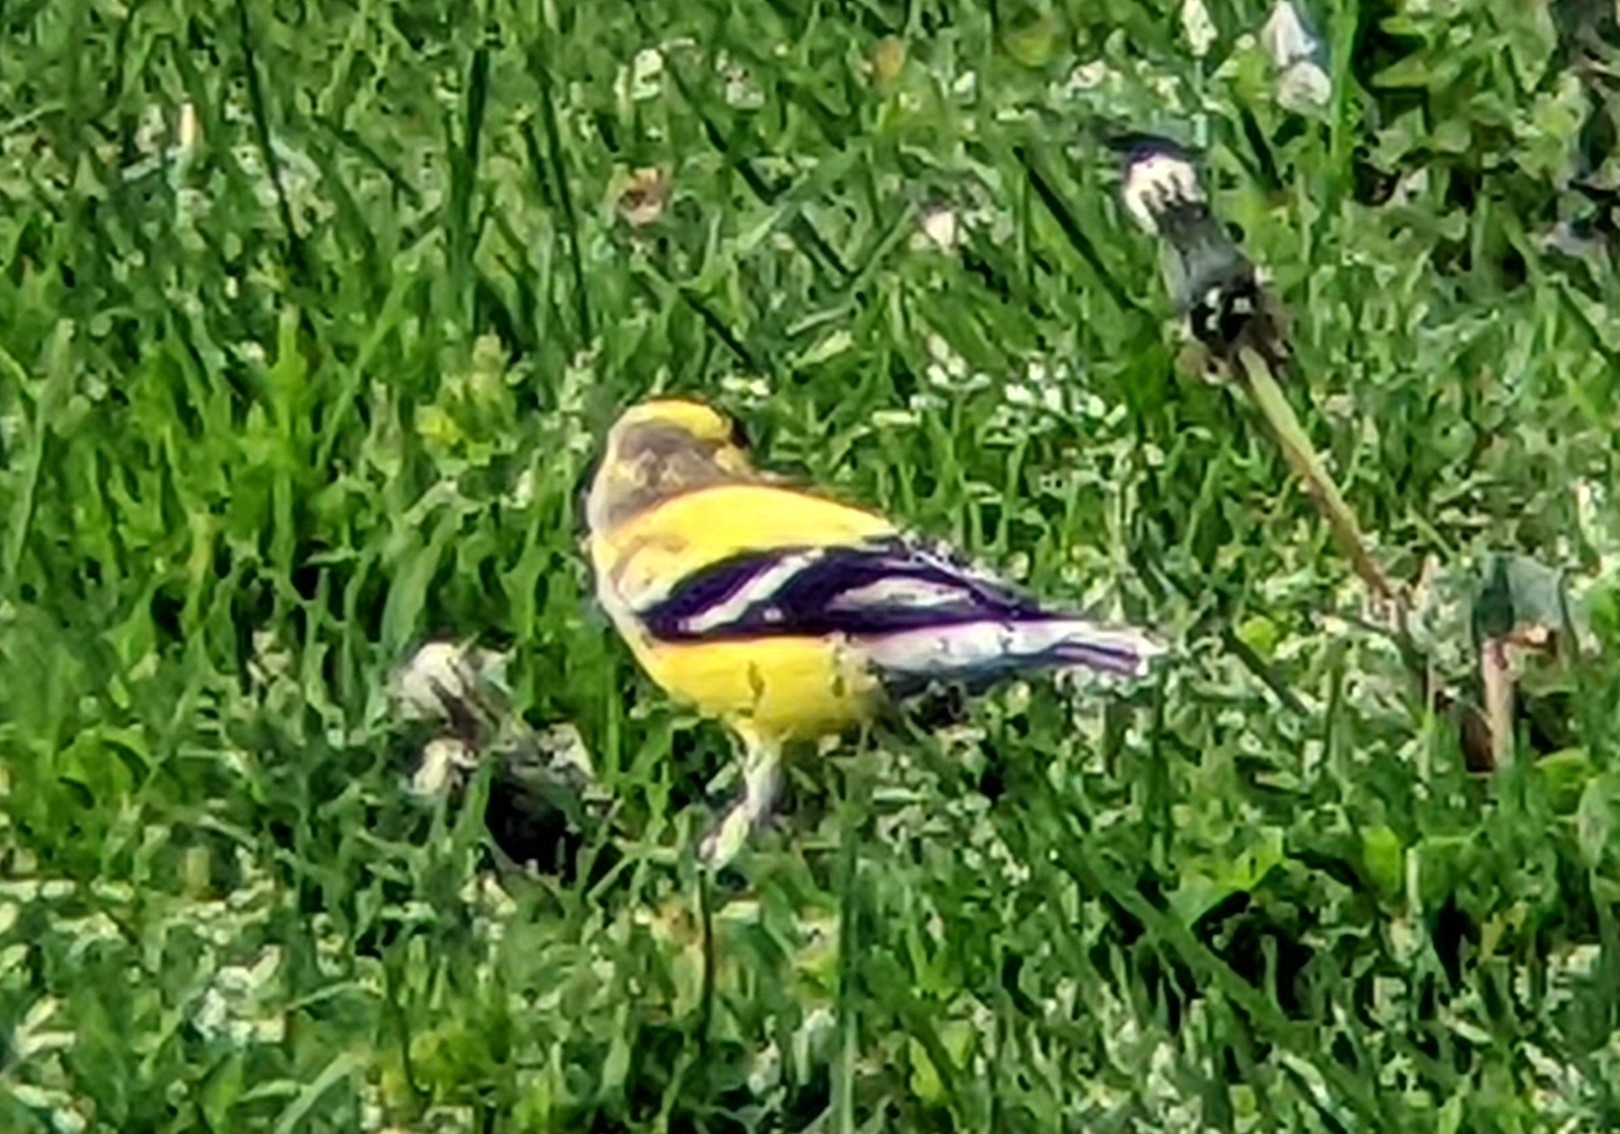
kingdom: Animalia
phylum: Chordata
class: Aves
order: Passeriformes
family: Fringillidae
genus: Spinus
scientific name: Spinus tristis
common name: American goldfinch
